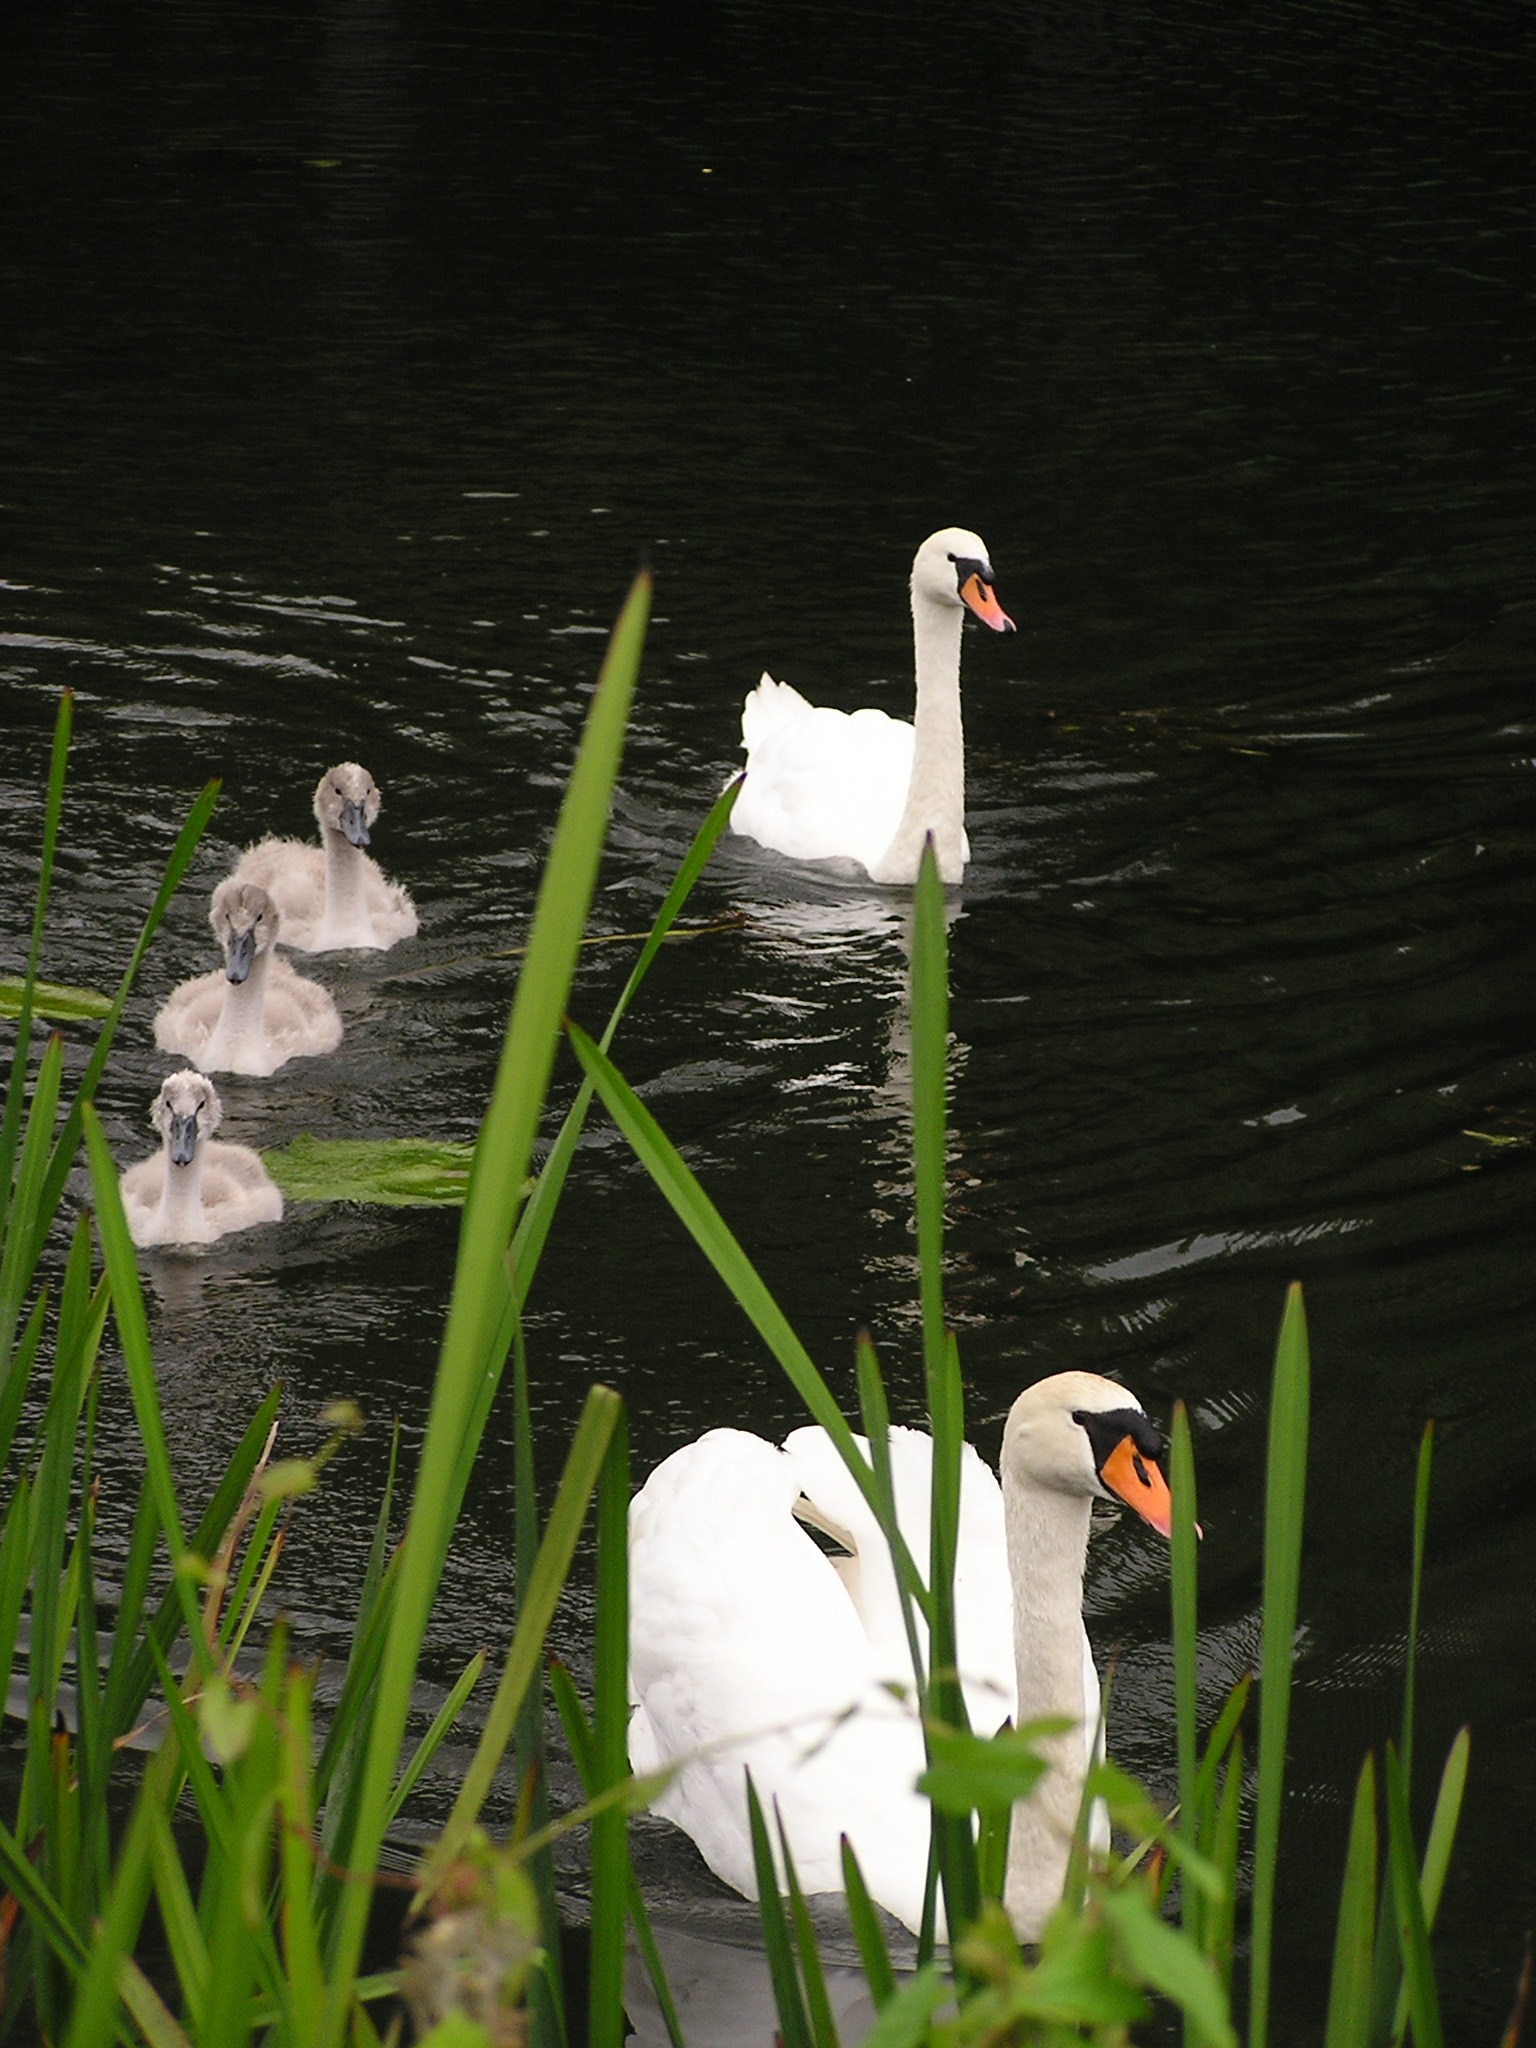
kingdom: Animalia
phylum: Chordata
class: Aves
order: Anseriformes
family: Anatidae
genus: Cygnus
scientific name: Cygnus olor
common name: Mute swan
